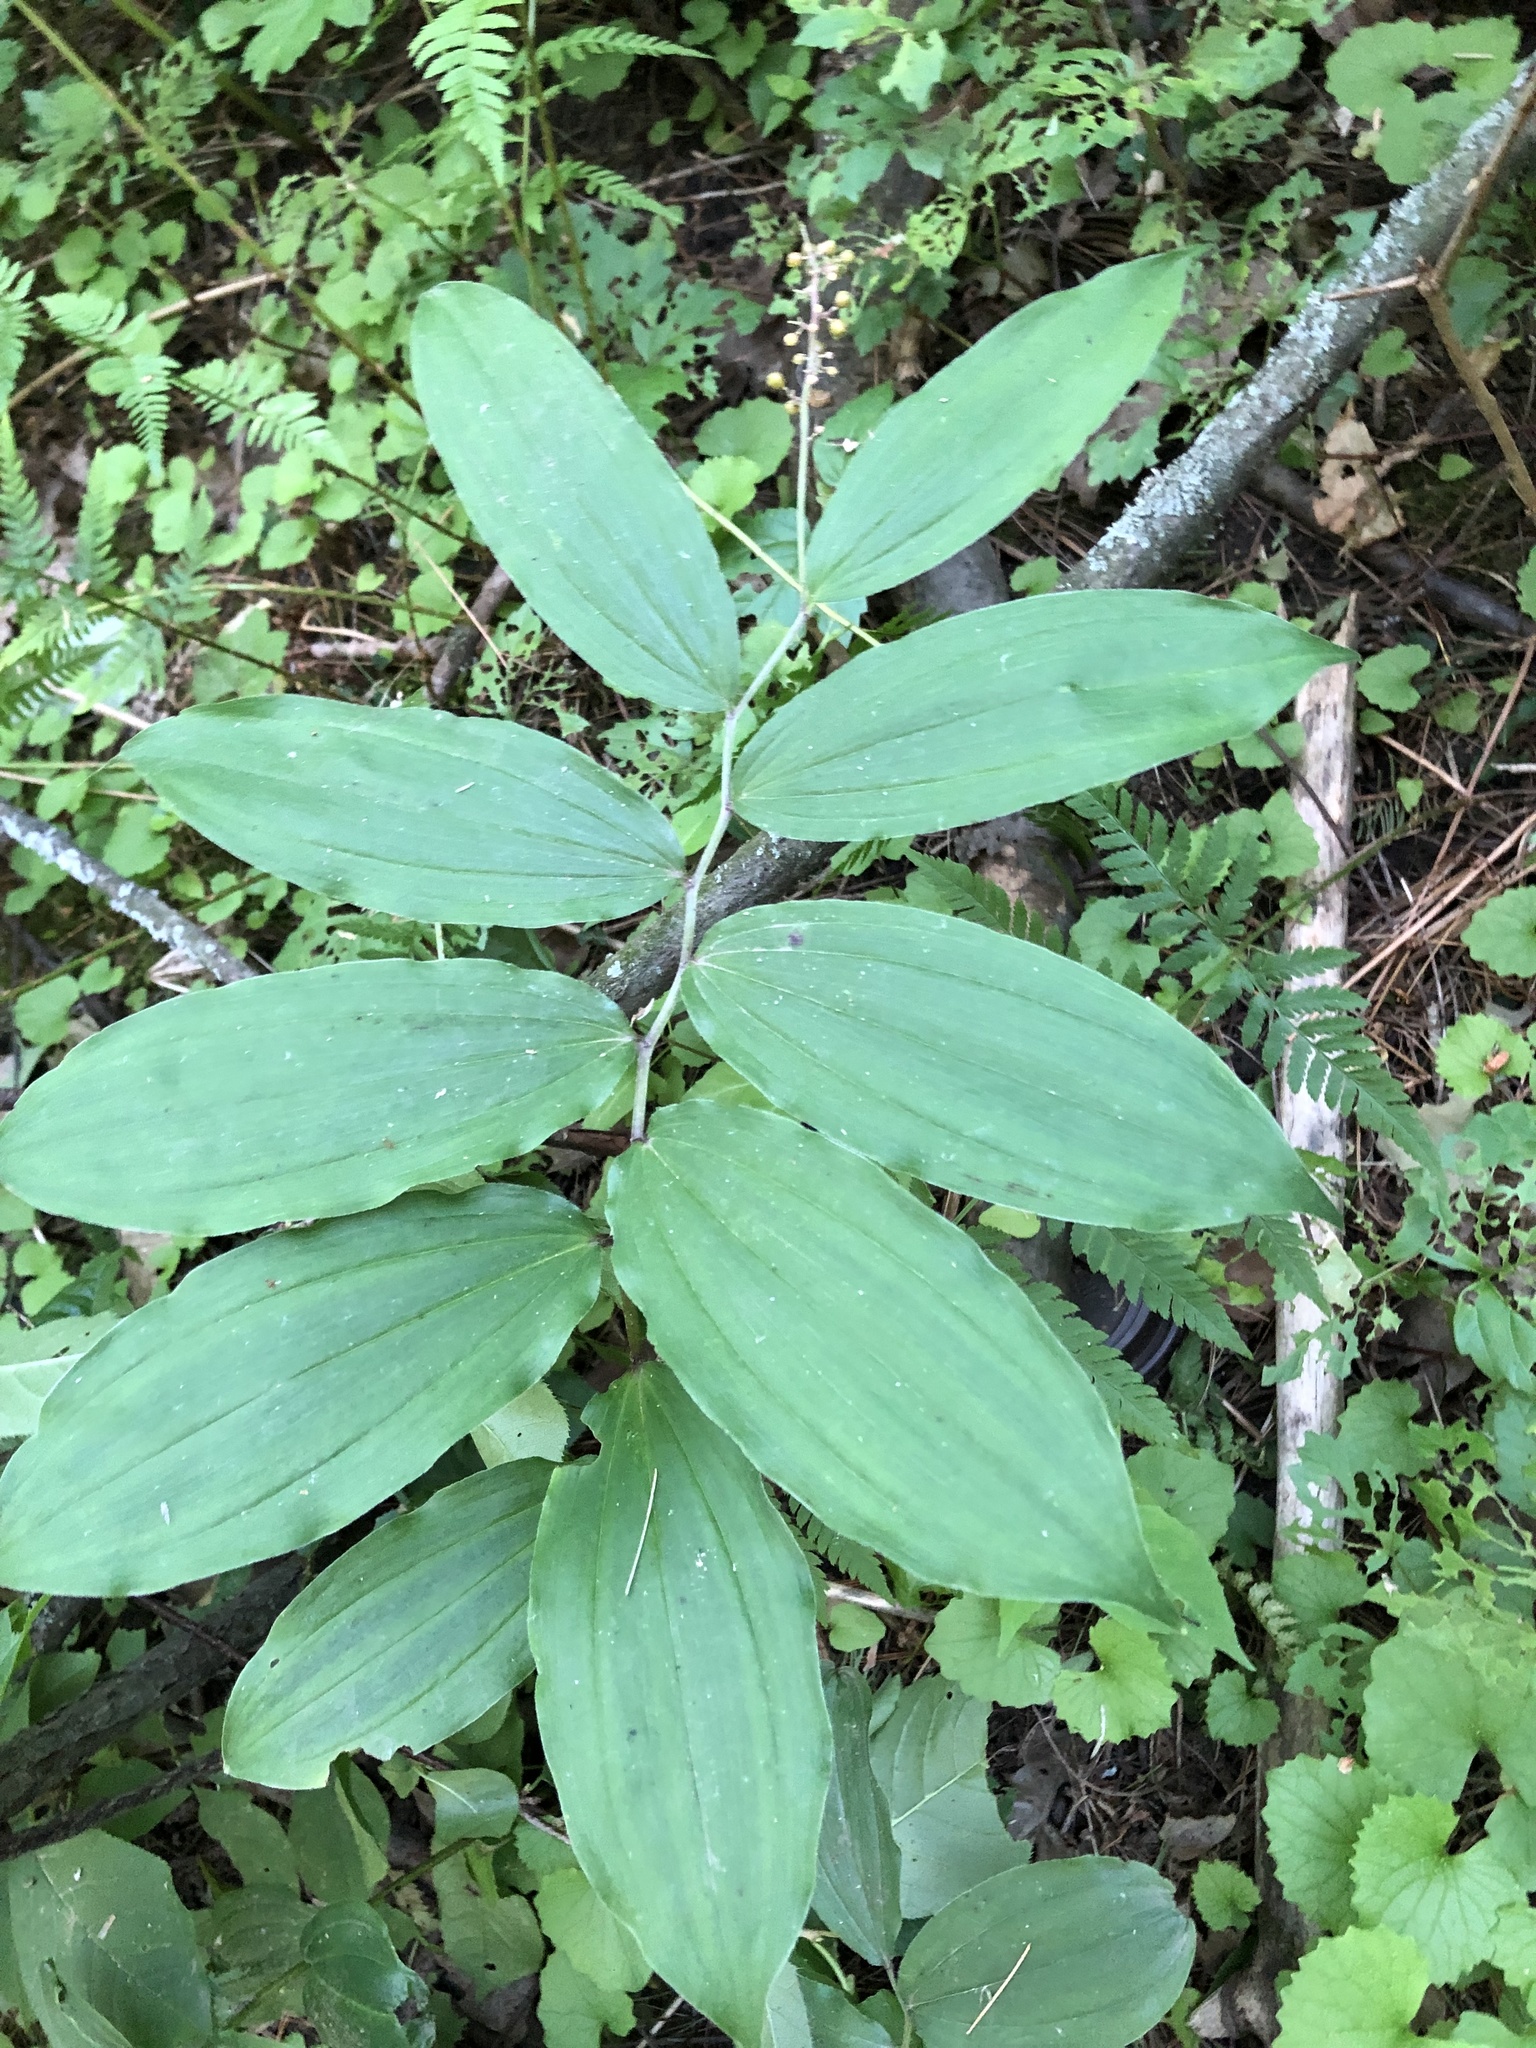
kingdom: Plantae
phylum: Tracheophyta
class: Liliopsida
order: Asparagales
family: Asparagaceae
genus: Maianthemum
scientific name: Maianthemum racemosum
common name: False spikenard
